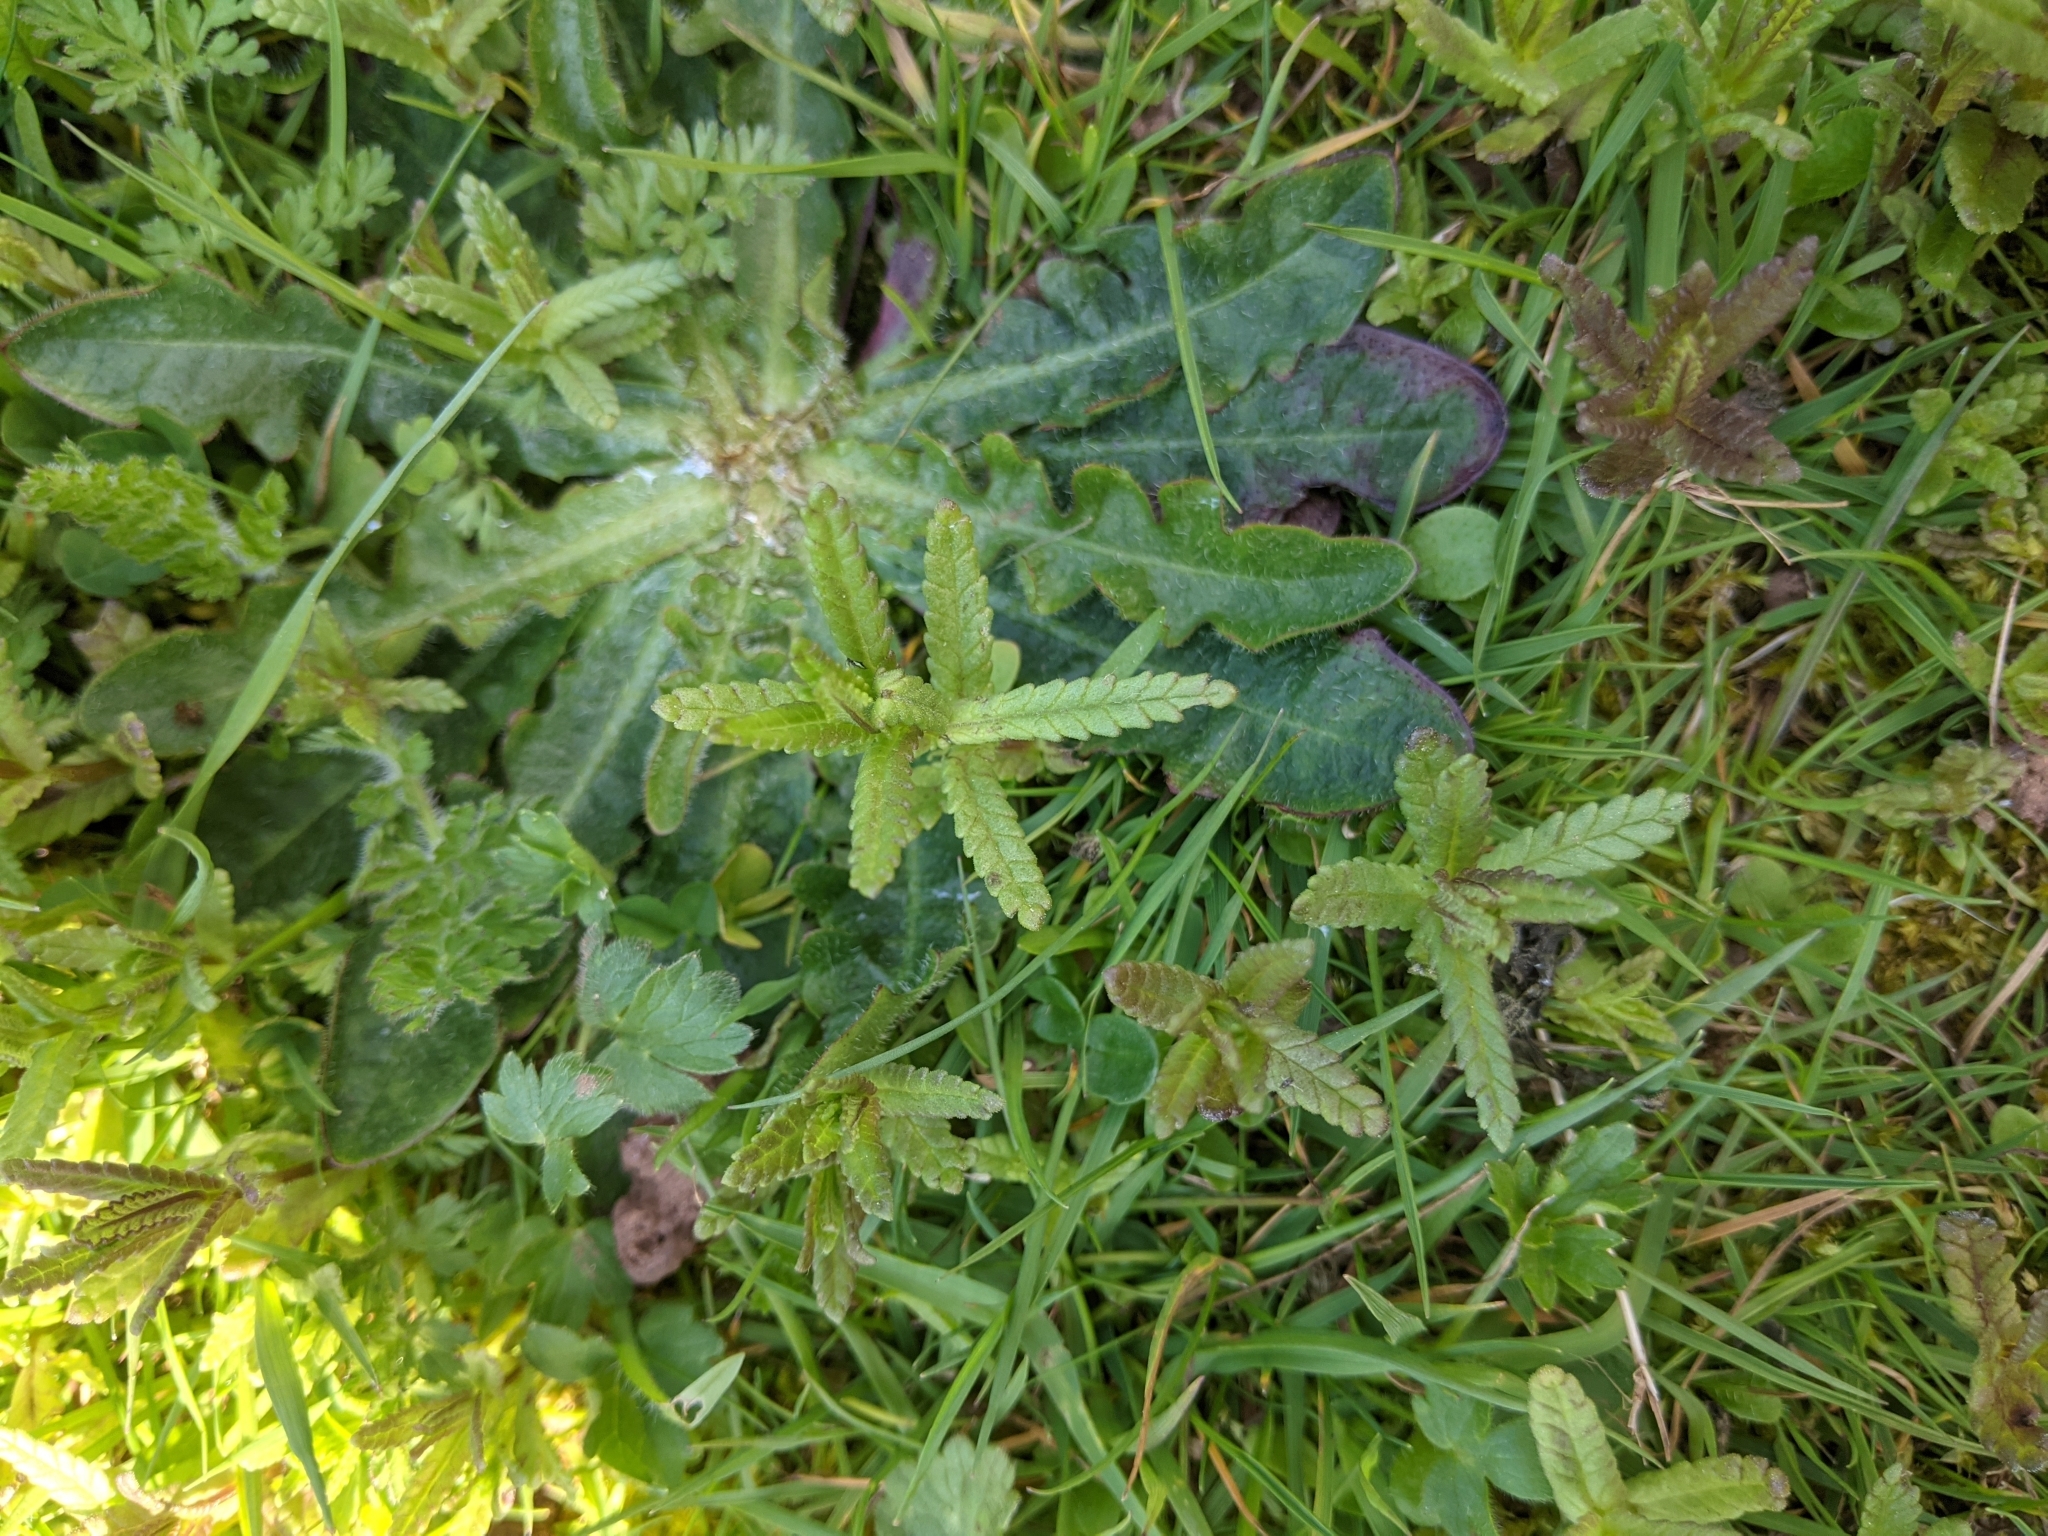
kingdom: Plantae
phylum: Tracheophyta
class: Magnoliopsida
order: Lamiales
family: Orobanchaceae
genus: Rhinanthus
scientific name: Rhinanthus minor
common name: Yellow-rattle
